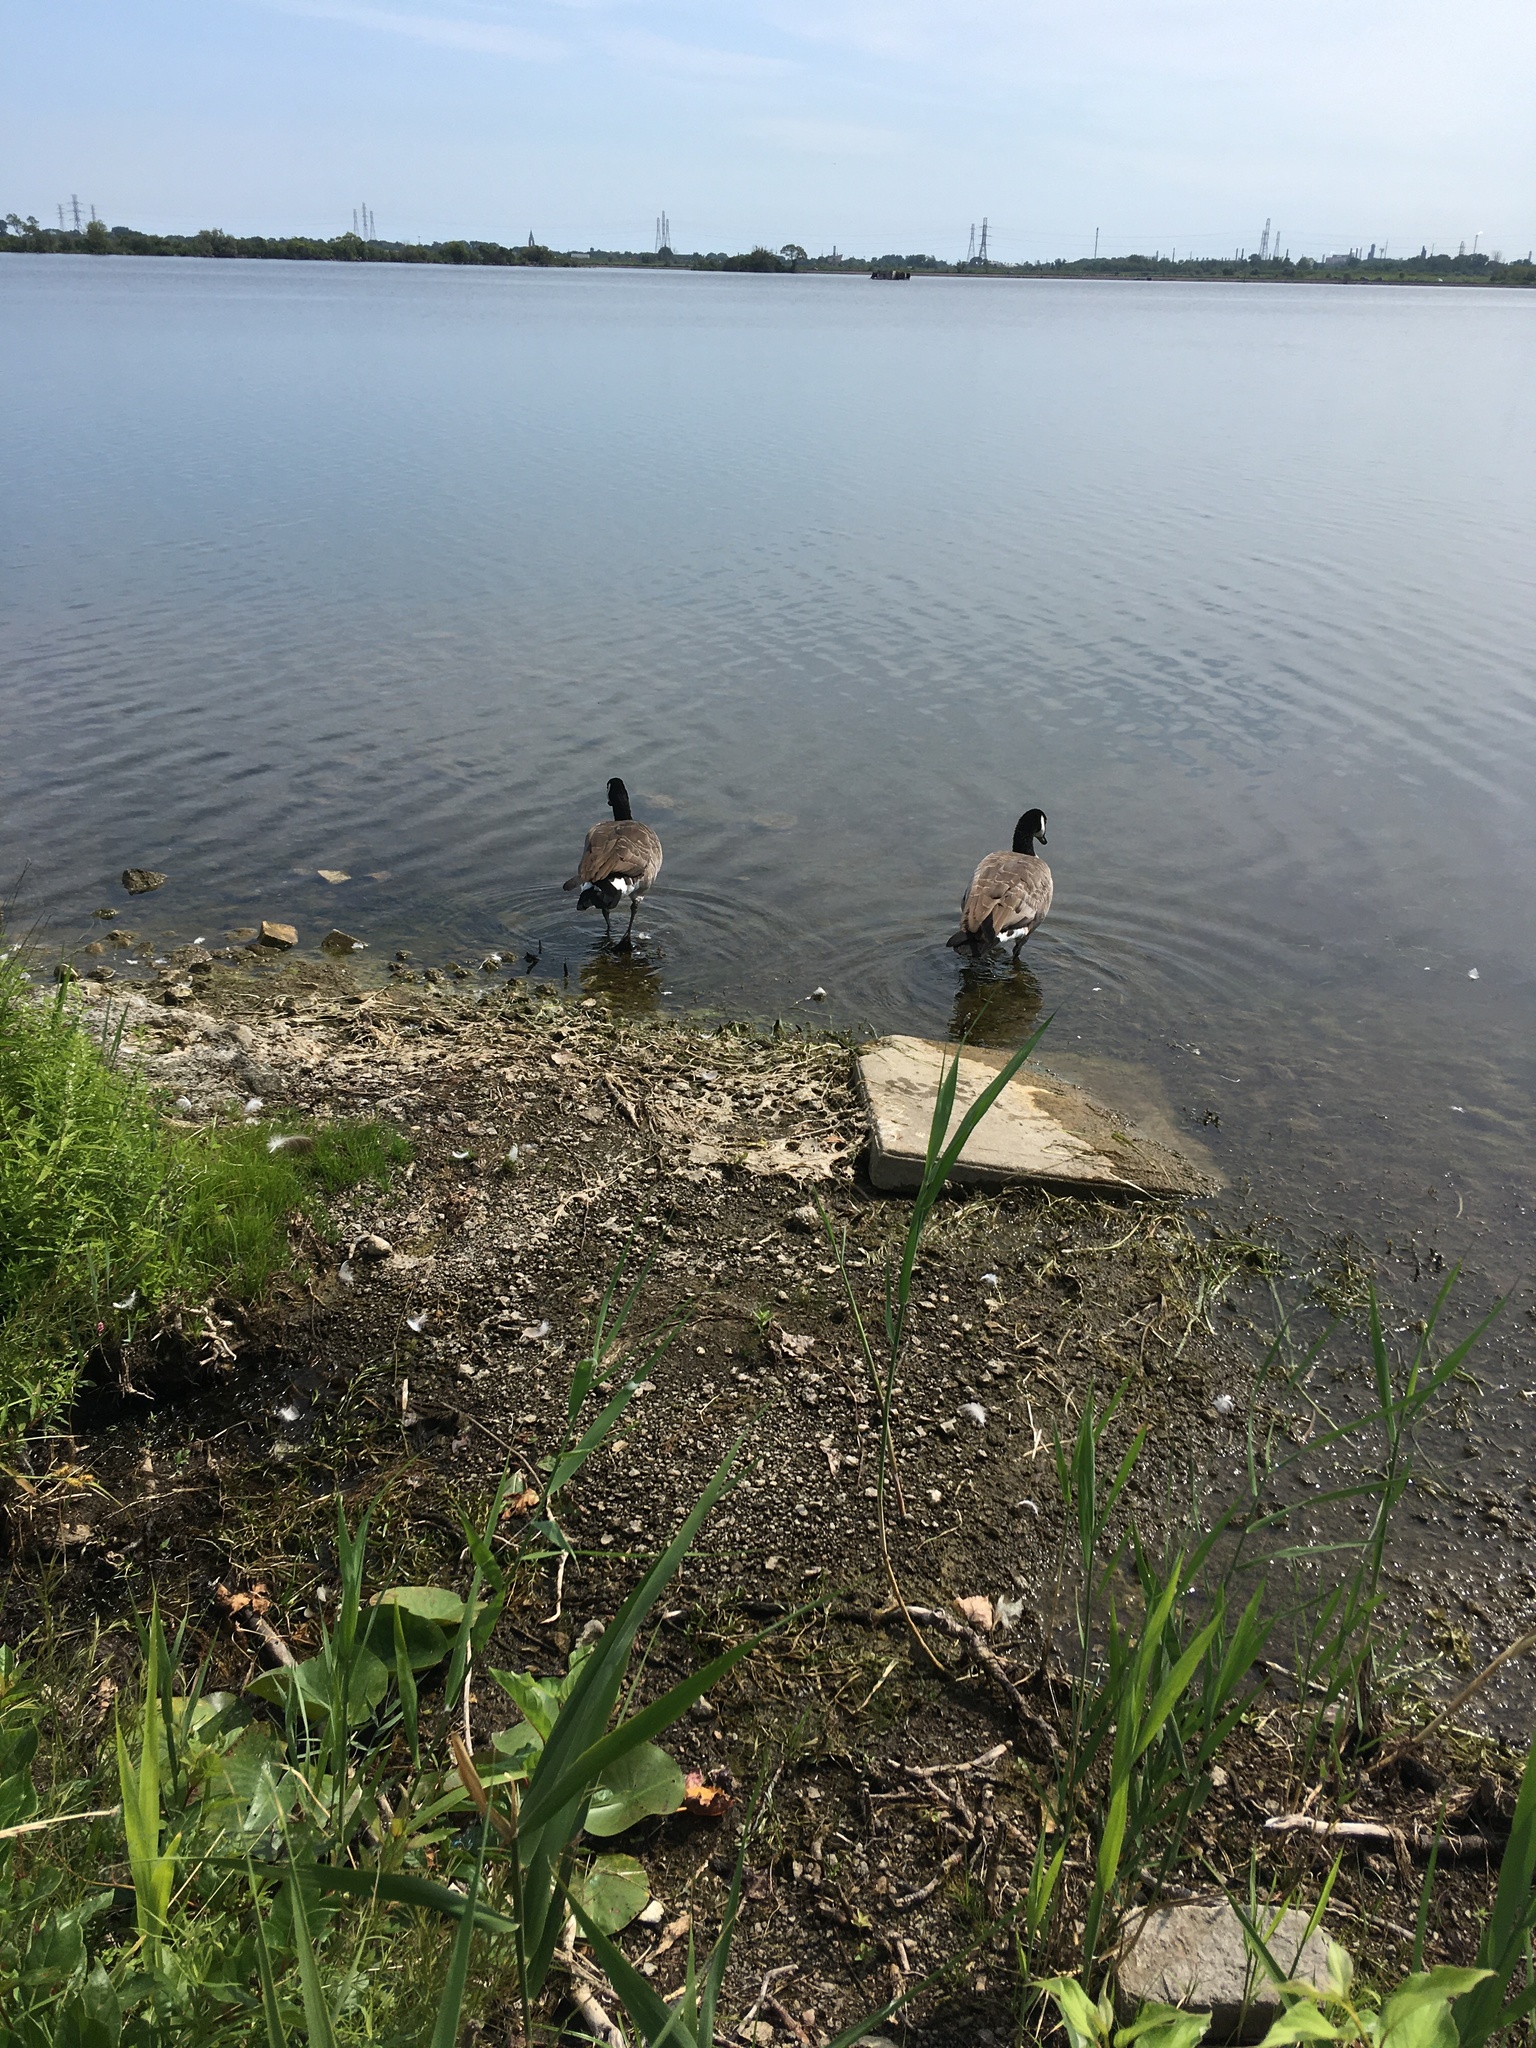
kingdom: Animalia
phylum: Chordata
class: Aves
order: Anseriformes
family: Anatidae
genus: Branta
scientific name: Branta canadensis
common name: Canada goose
